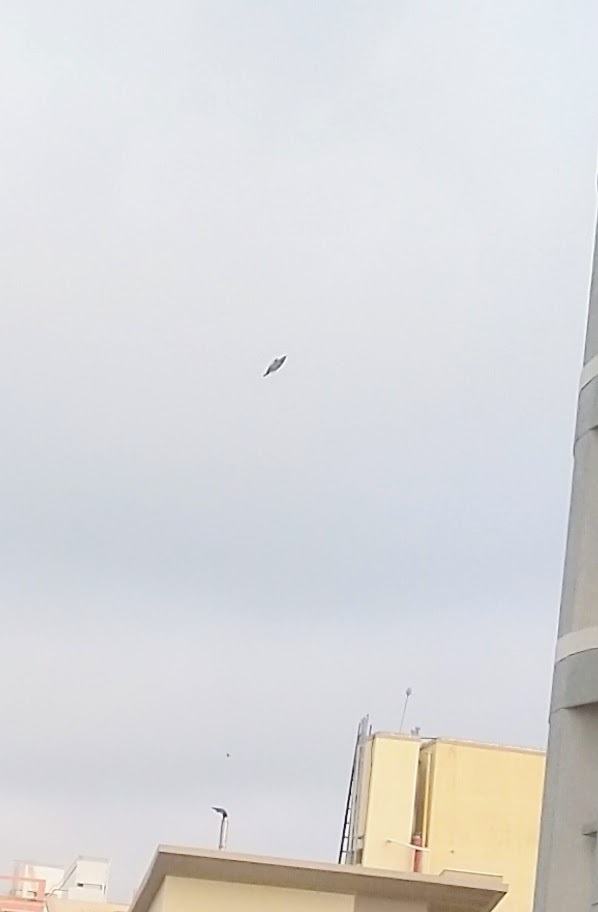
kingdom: Animalia
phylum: Chordata
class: Aves
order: Passeriformes
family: Sturnidae
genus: Acridotheres
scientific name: Acridotheres tristis
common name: Common myna
